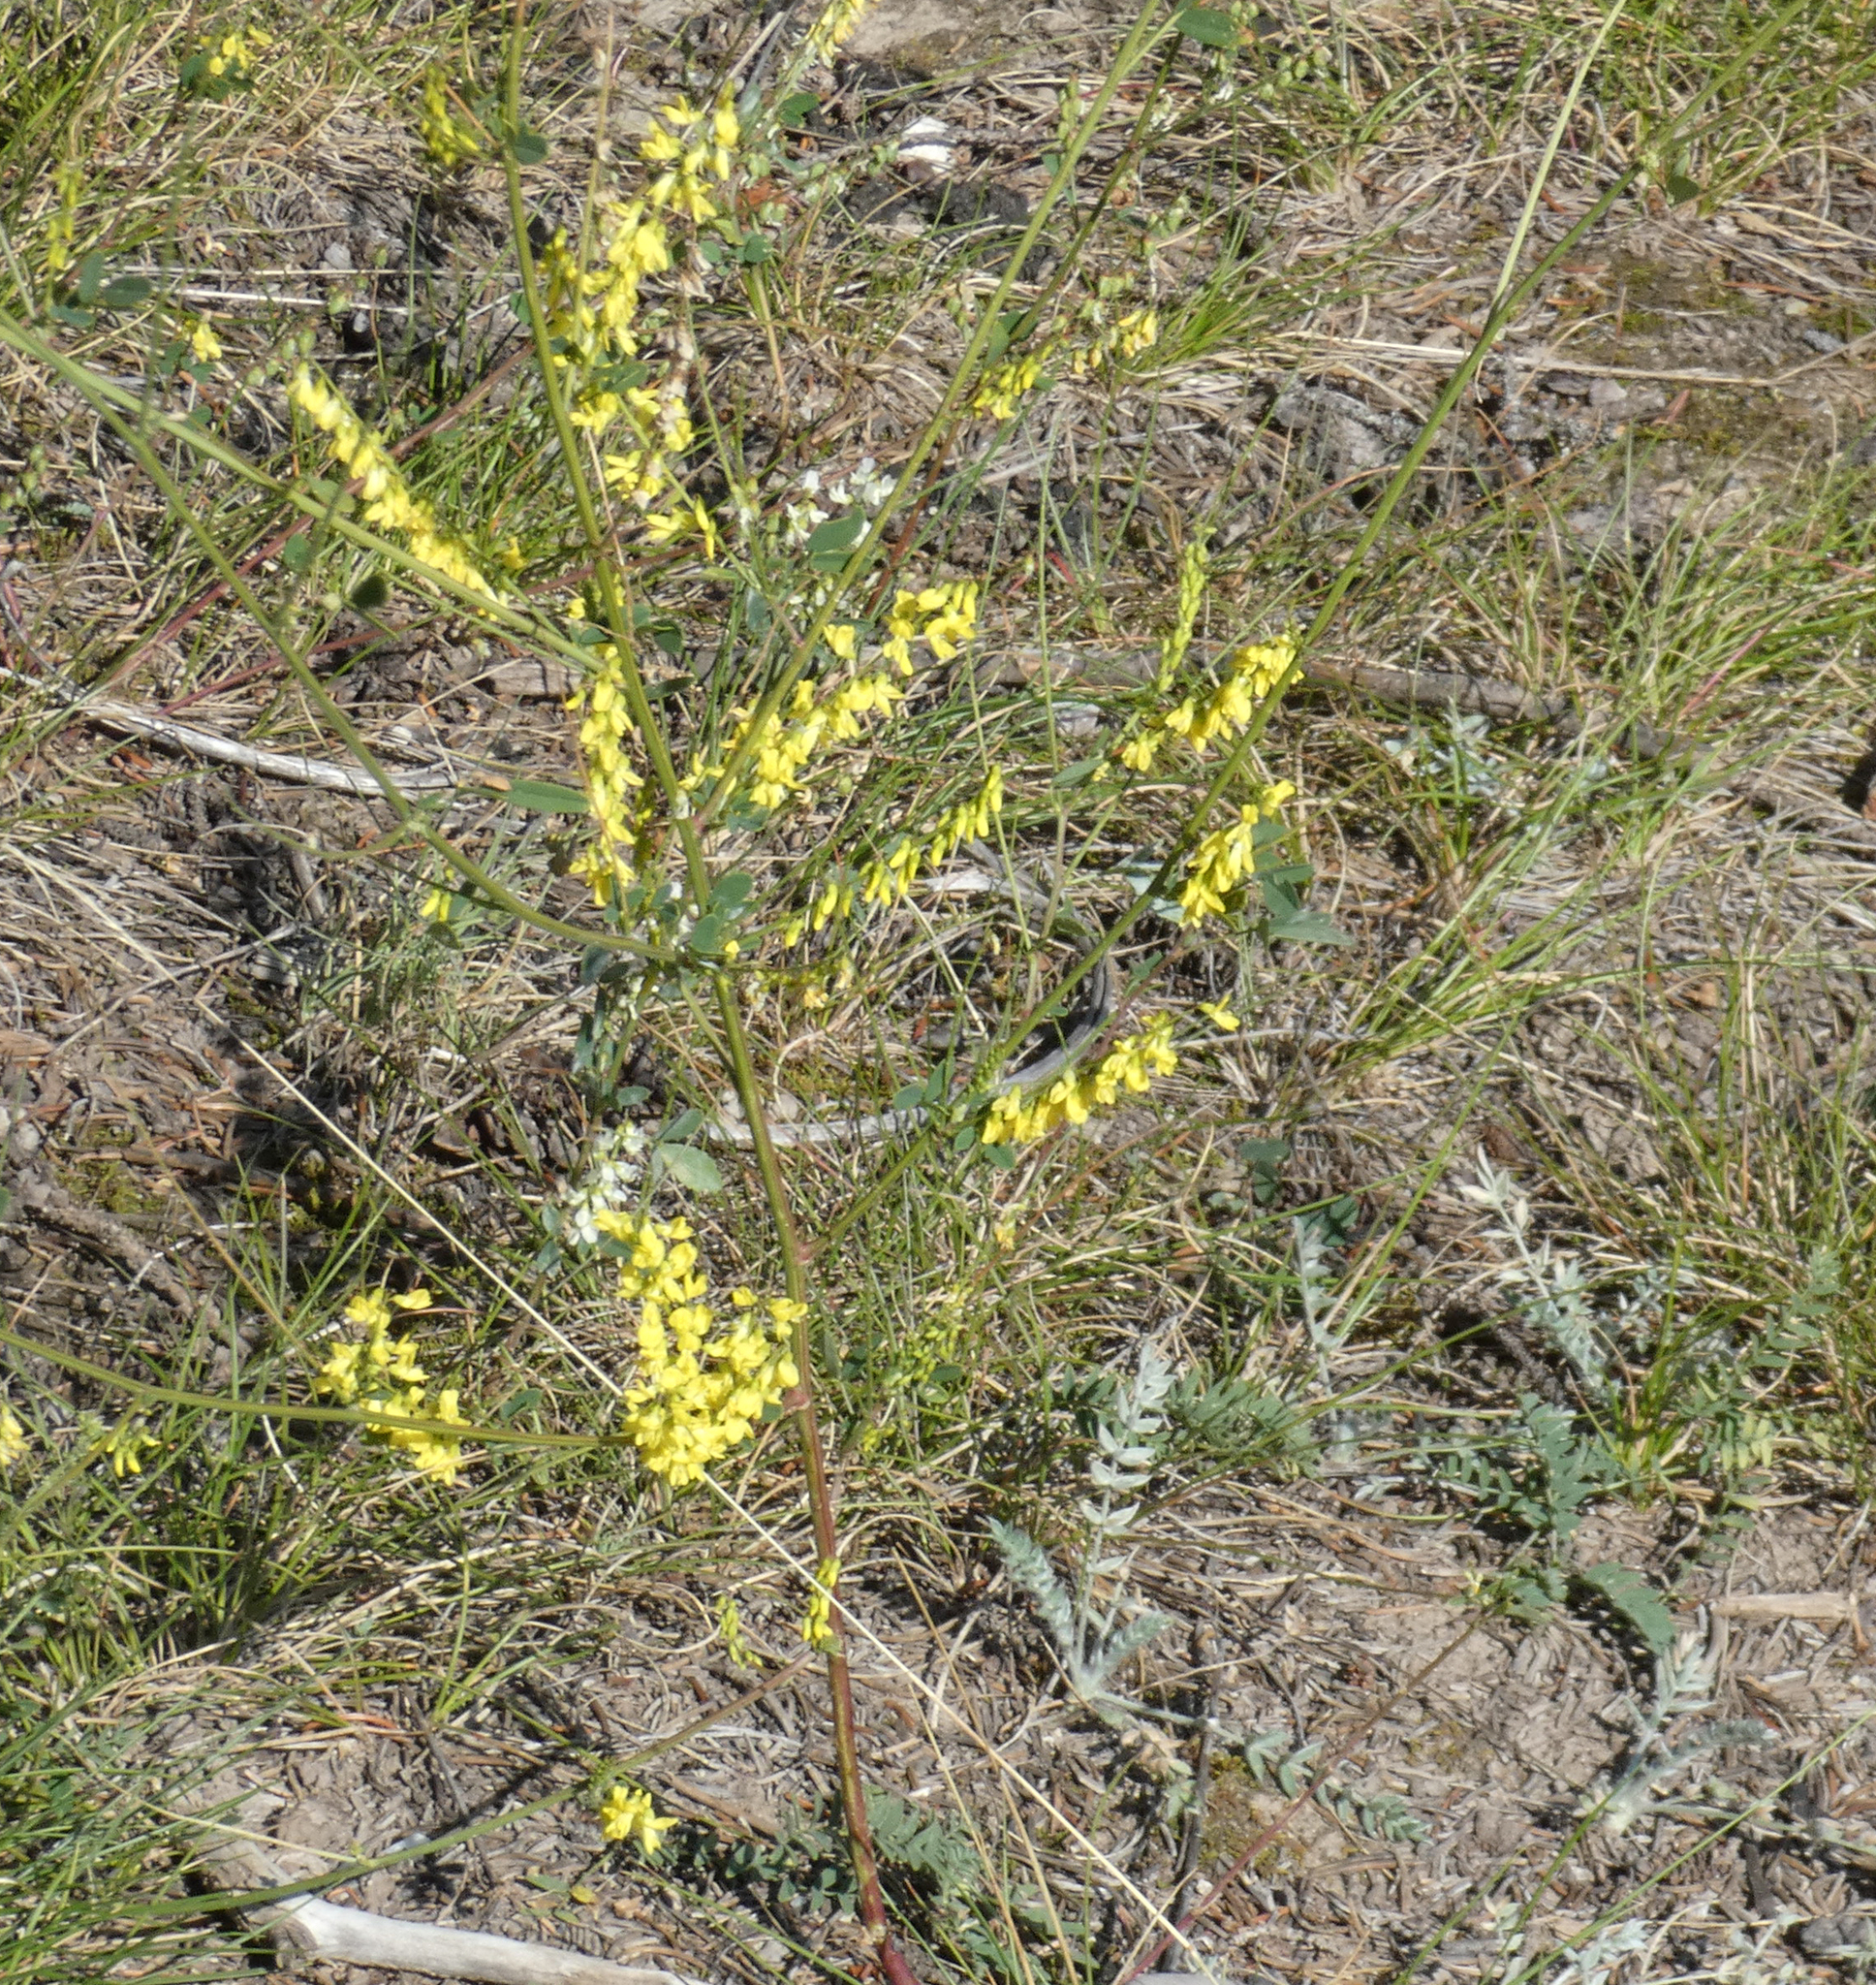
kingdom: Plantae
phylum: Tracheophyta
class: Magnoliopsida
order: Fabales
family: Fabaceae
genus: Melilotus
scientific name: Melilotus officinalis
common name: Sweetclover
